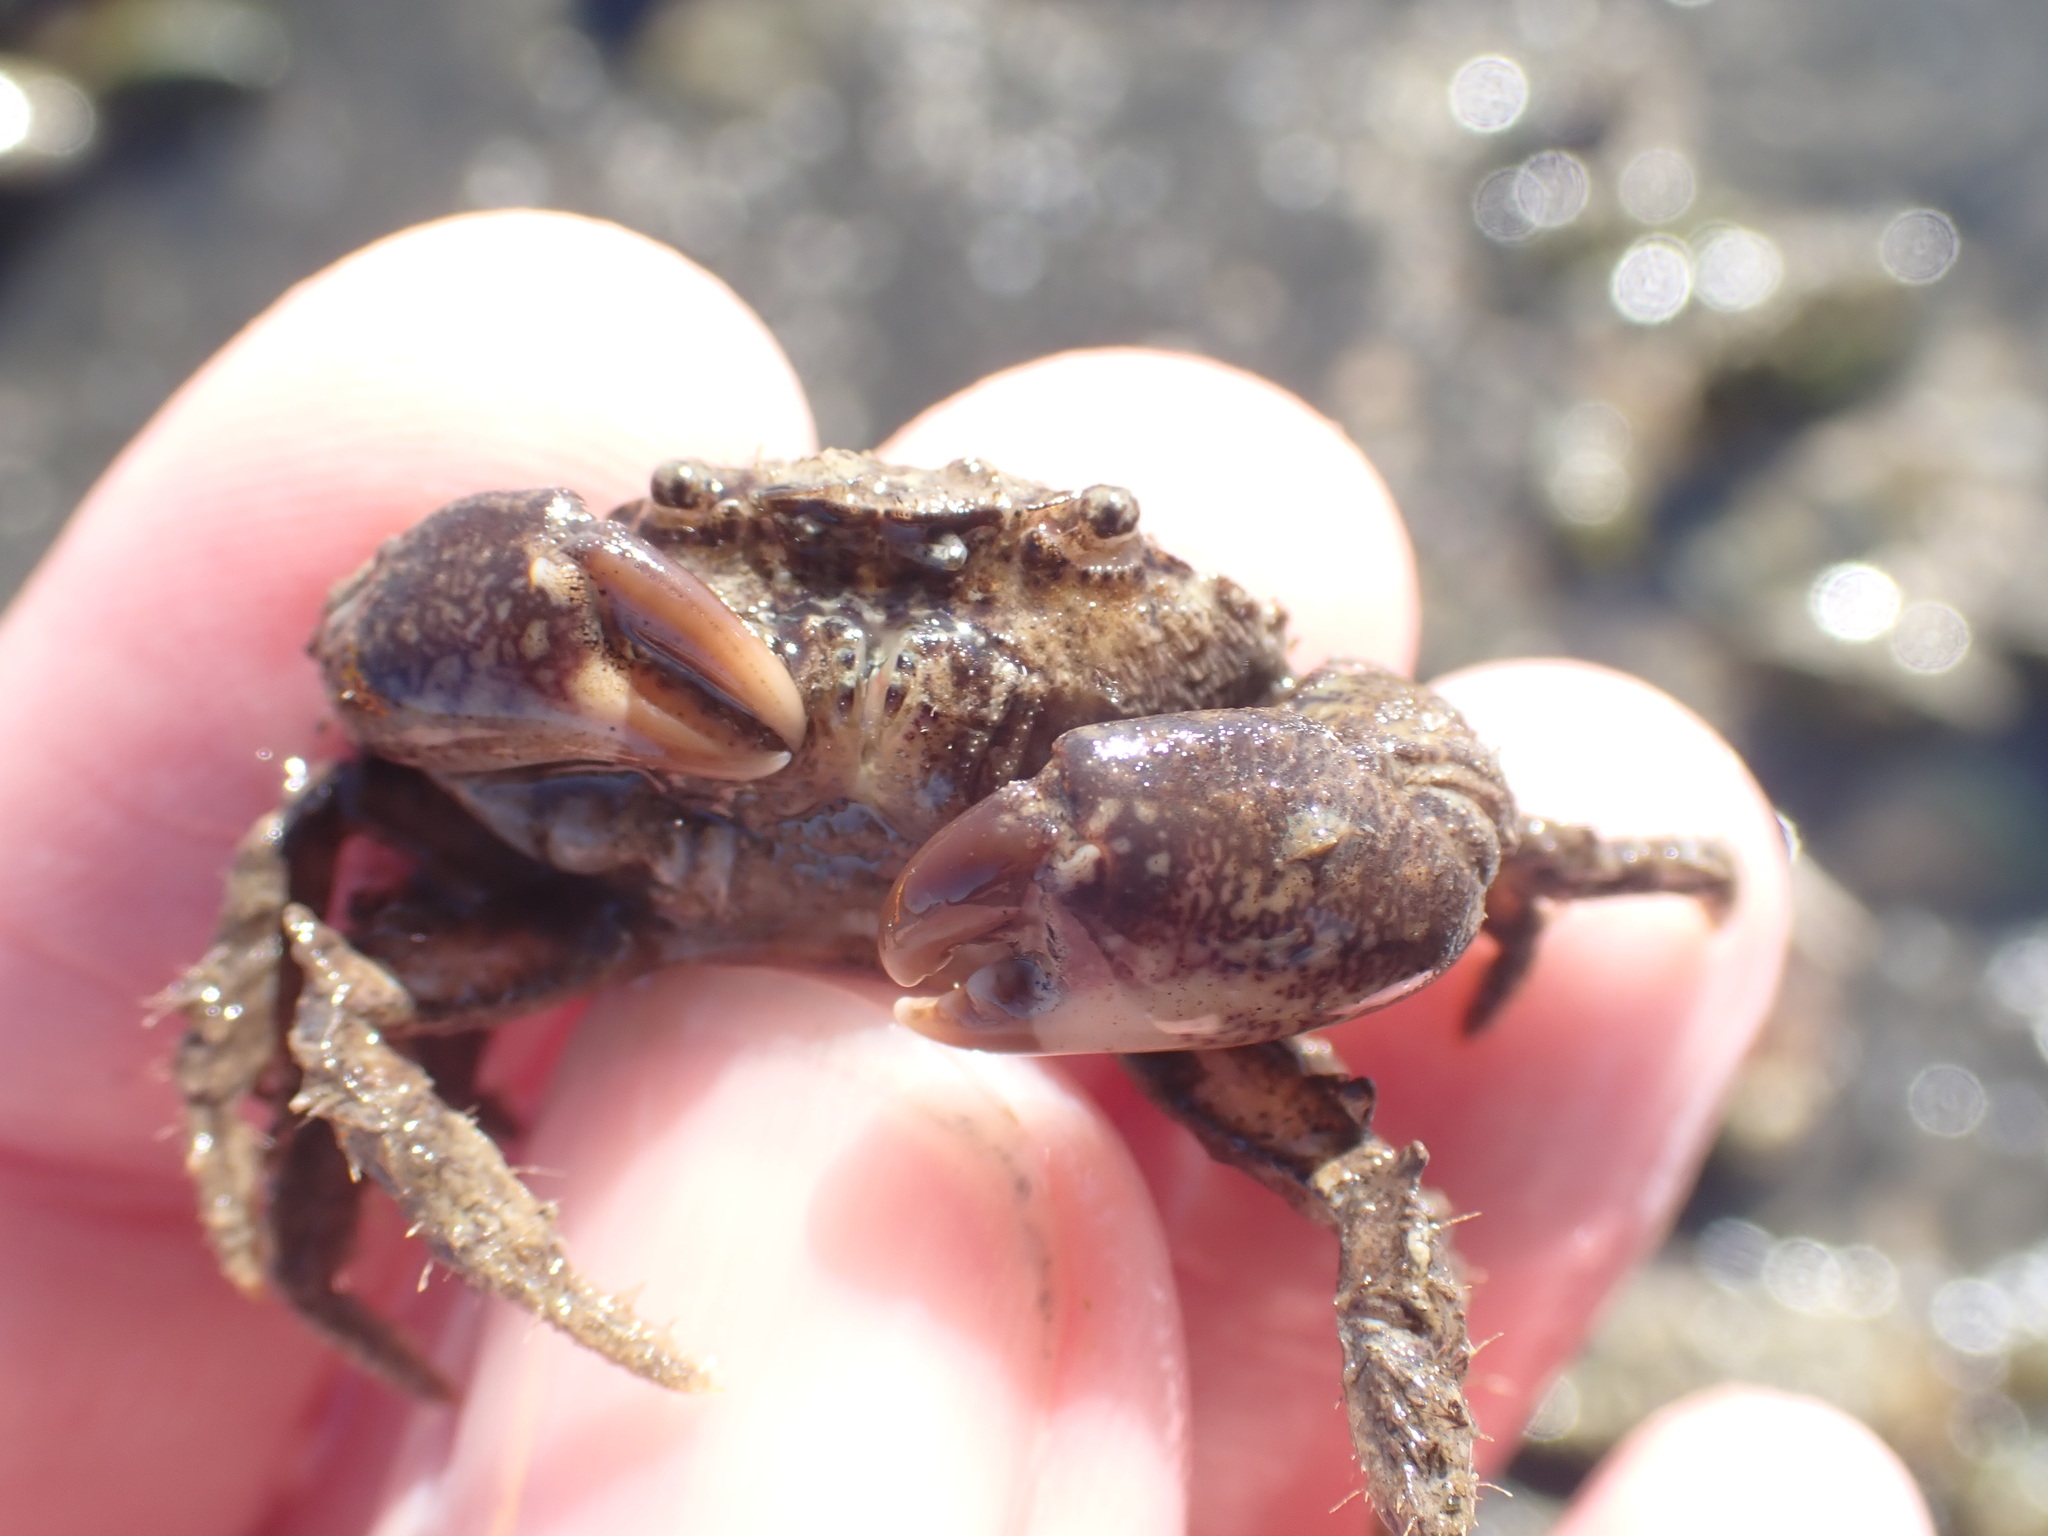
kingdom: Animalia
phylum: Arthropoda
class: Malacostraca
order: Decapoda
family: Pilumnidae
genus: Pilumnopeus
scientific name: Pilumnopeus serratifrons
